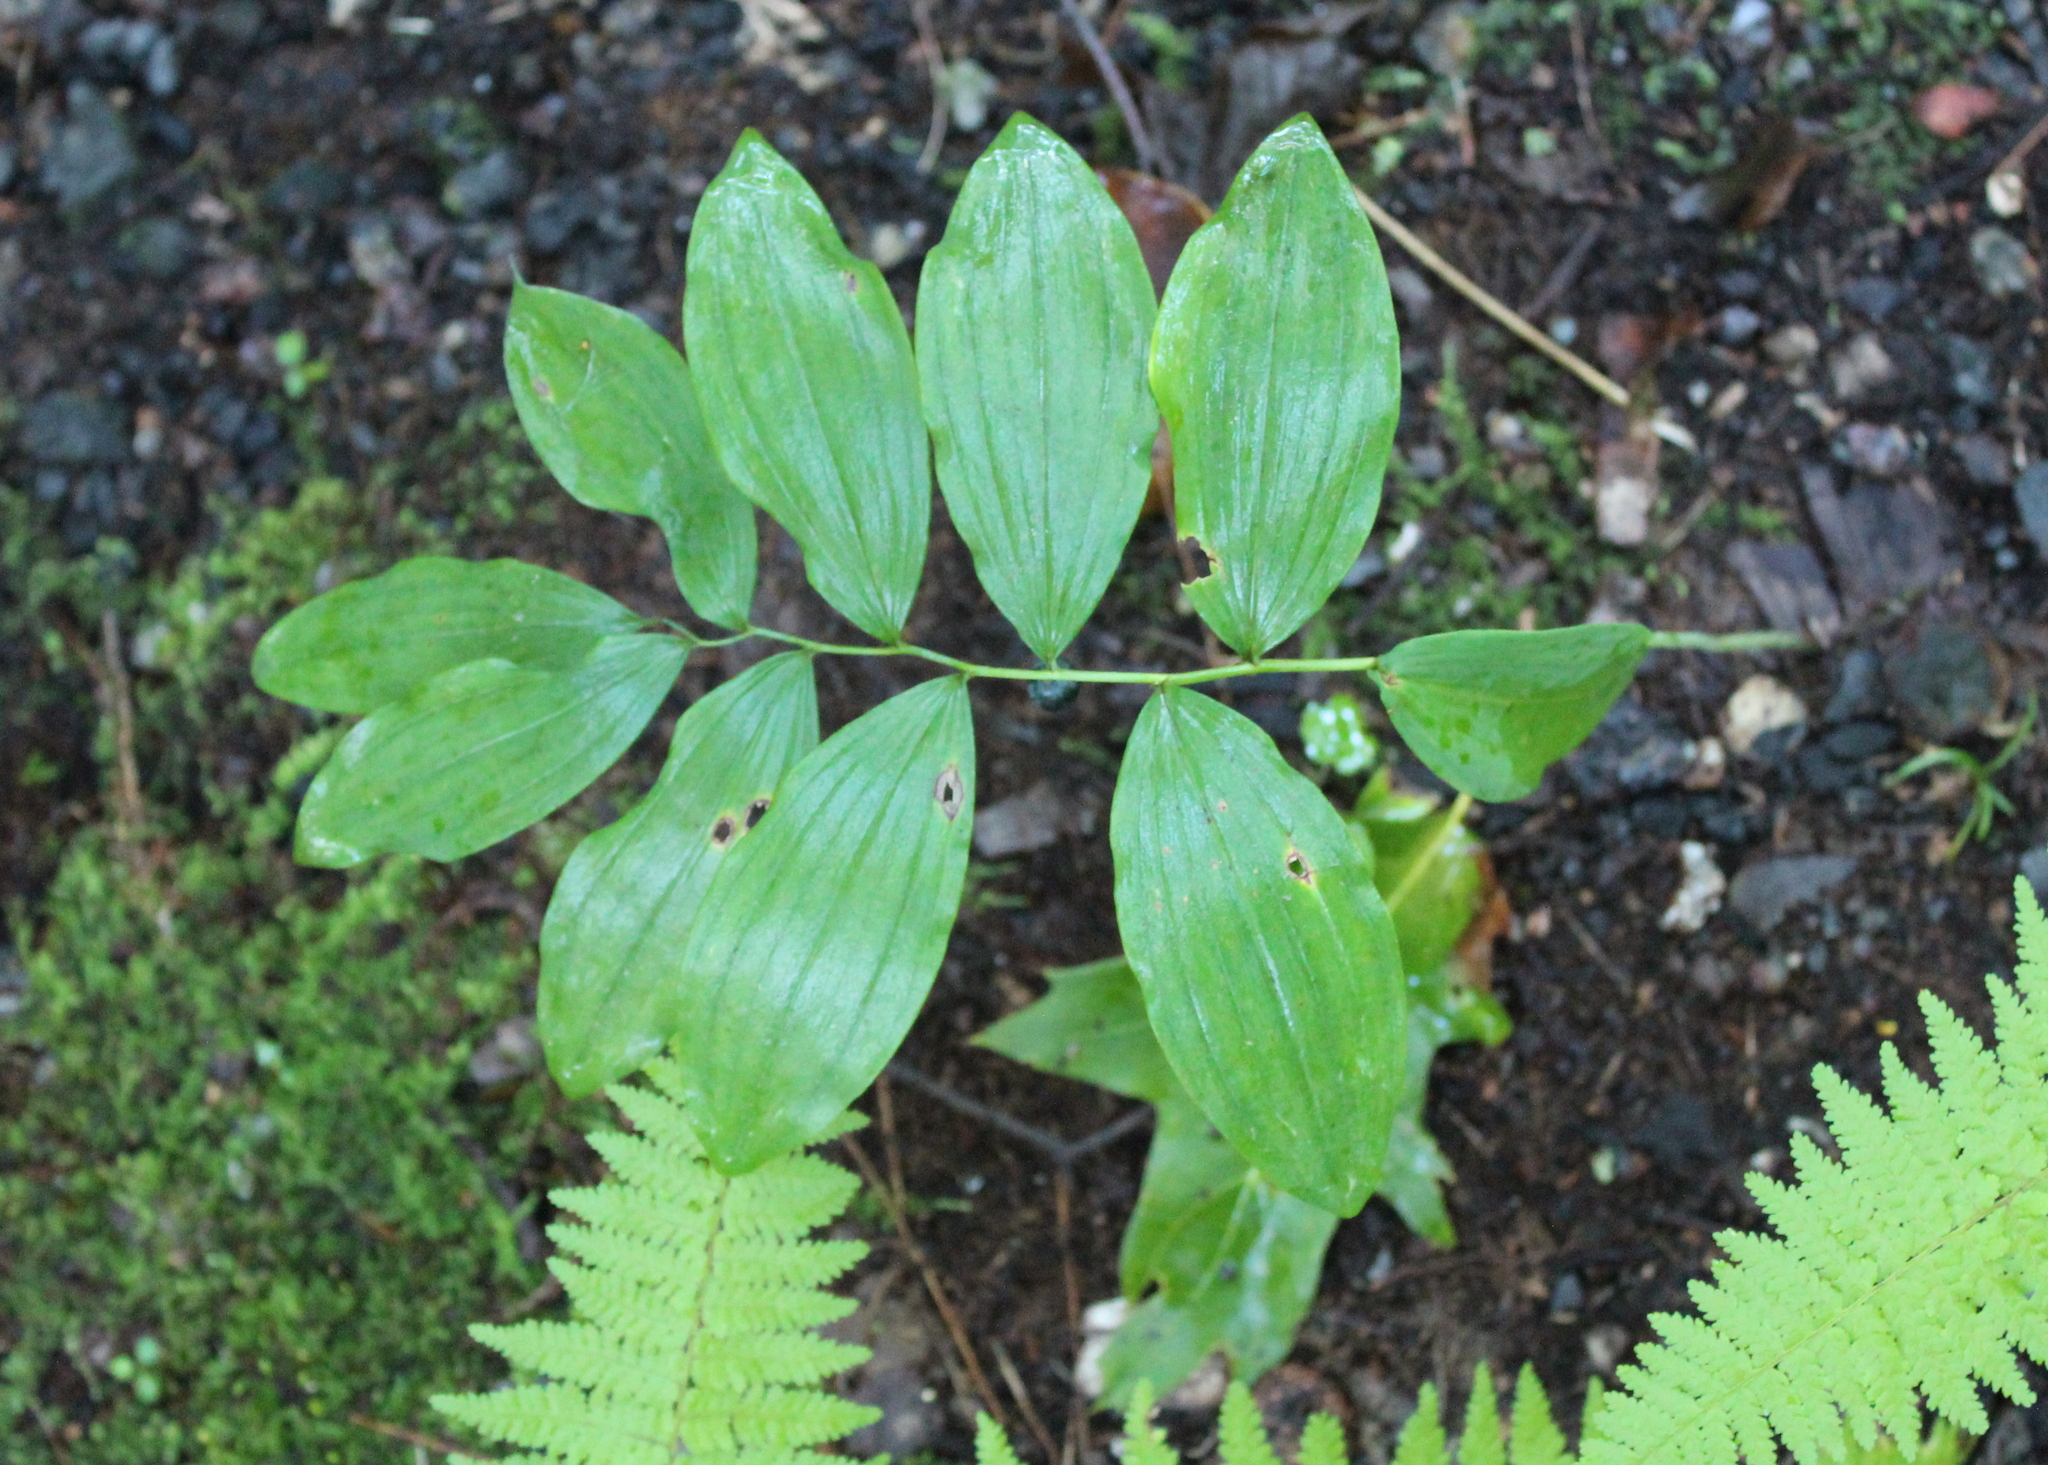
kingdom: Plantae
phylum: Tracheophyta
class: Liliopsida
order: Asparagales
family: Asparagaceae
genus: Polygonatum
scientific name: Polygonatum pubescens
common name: Downy solomon's seal
